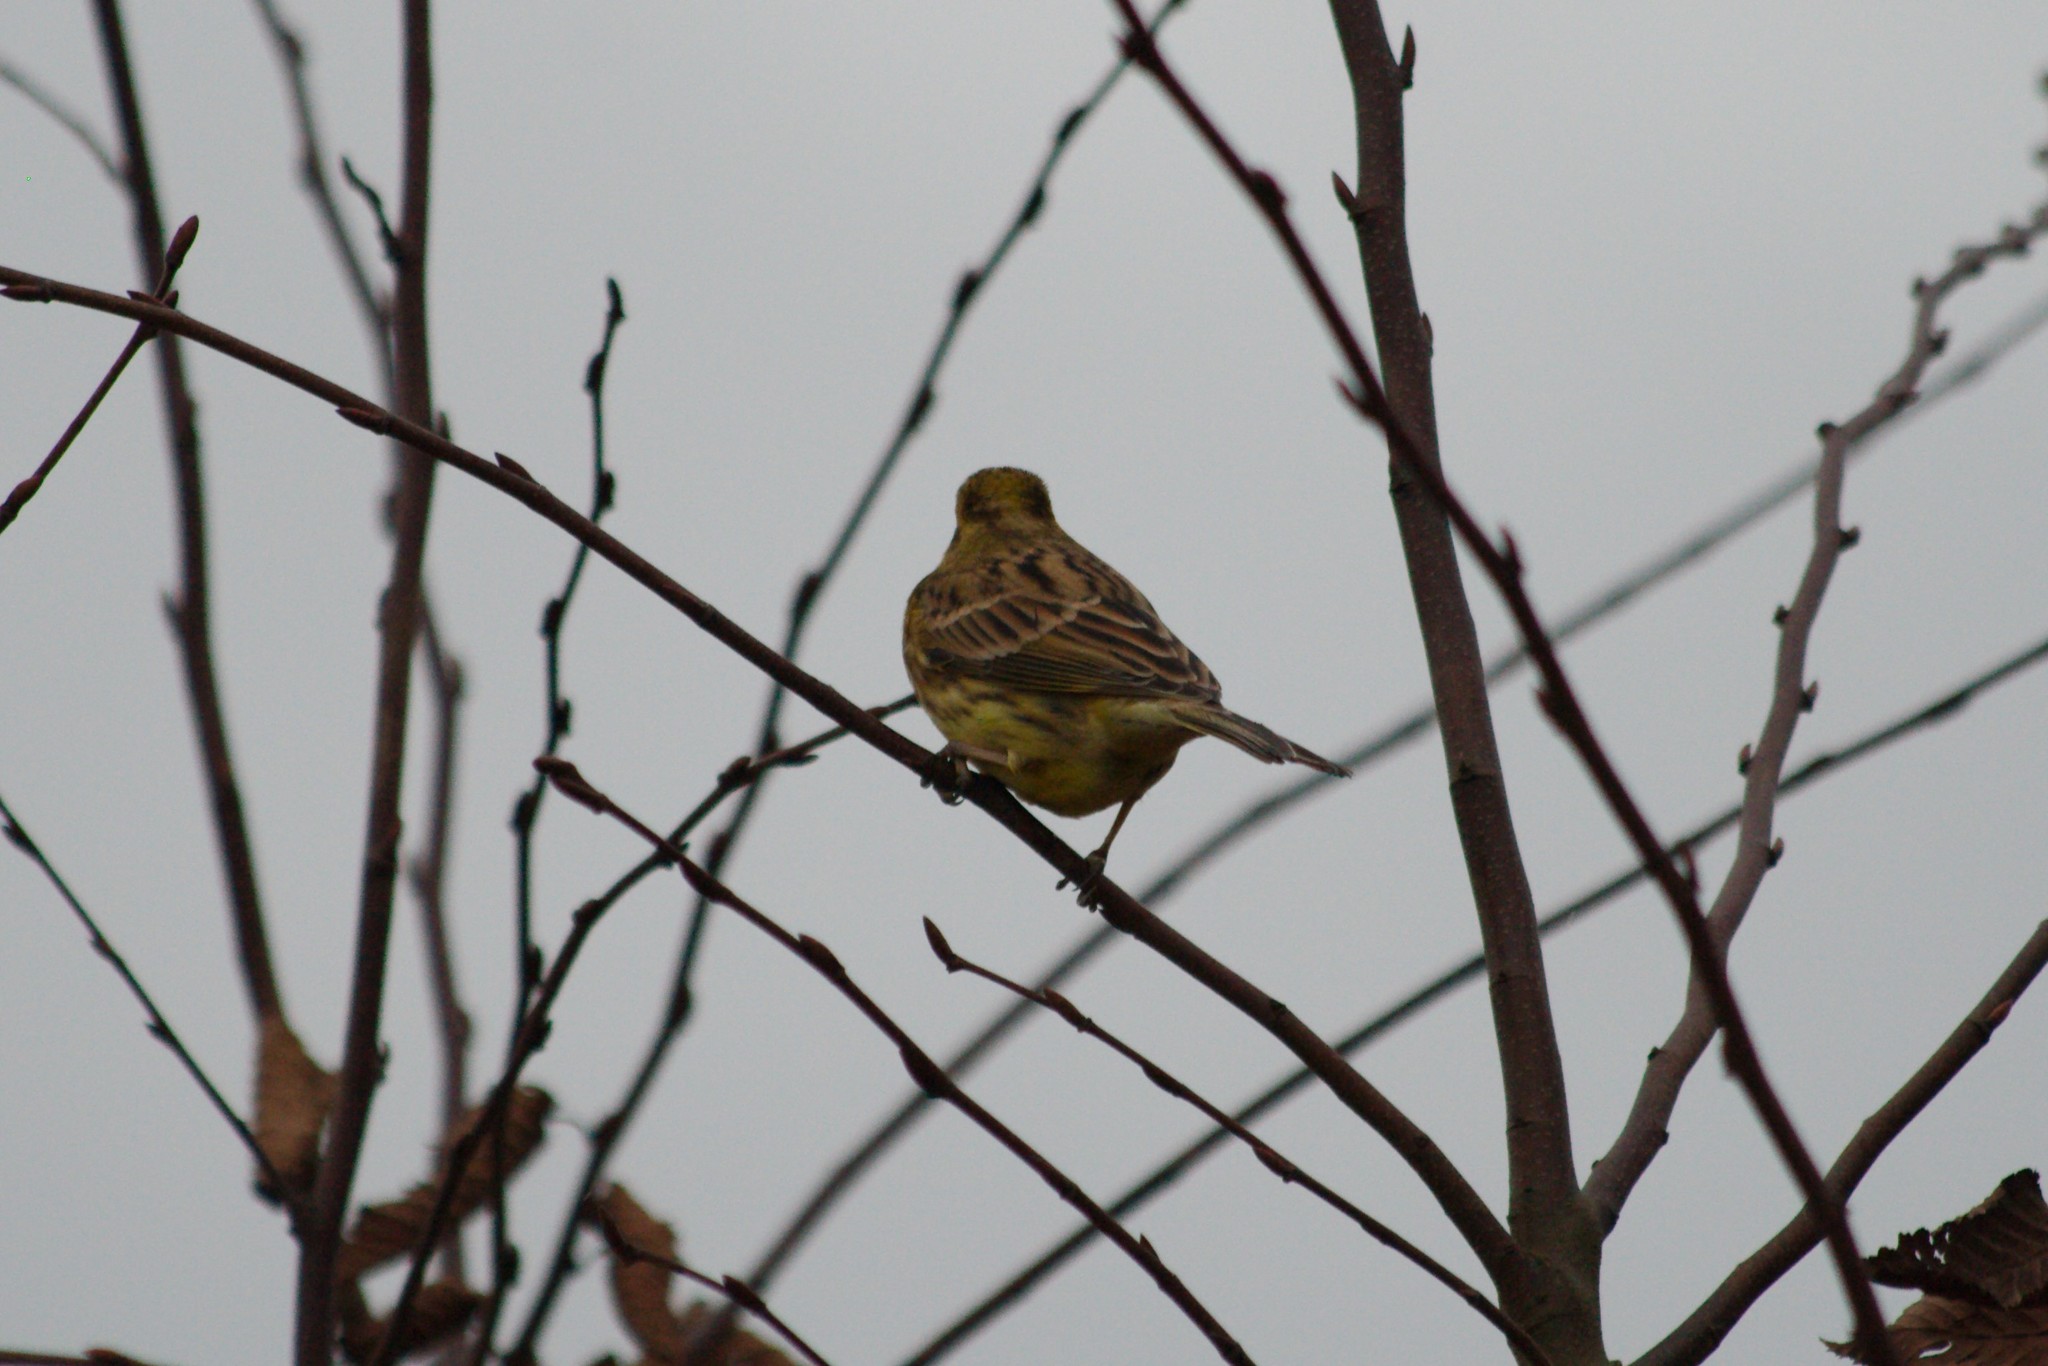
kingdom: Animalia
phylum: Chordata
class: Aves
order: Passeriformes
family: Emberizidae
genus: Emberiza
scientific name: Emberiza citrinella
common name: Yellowhammer
